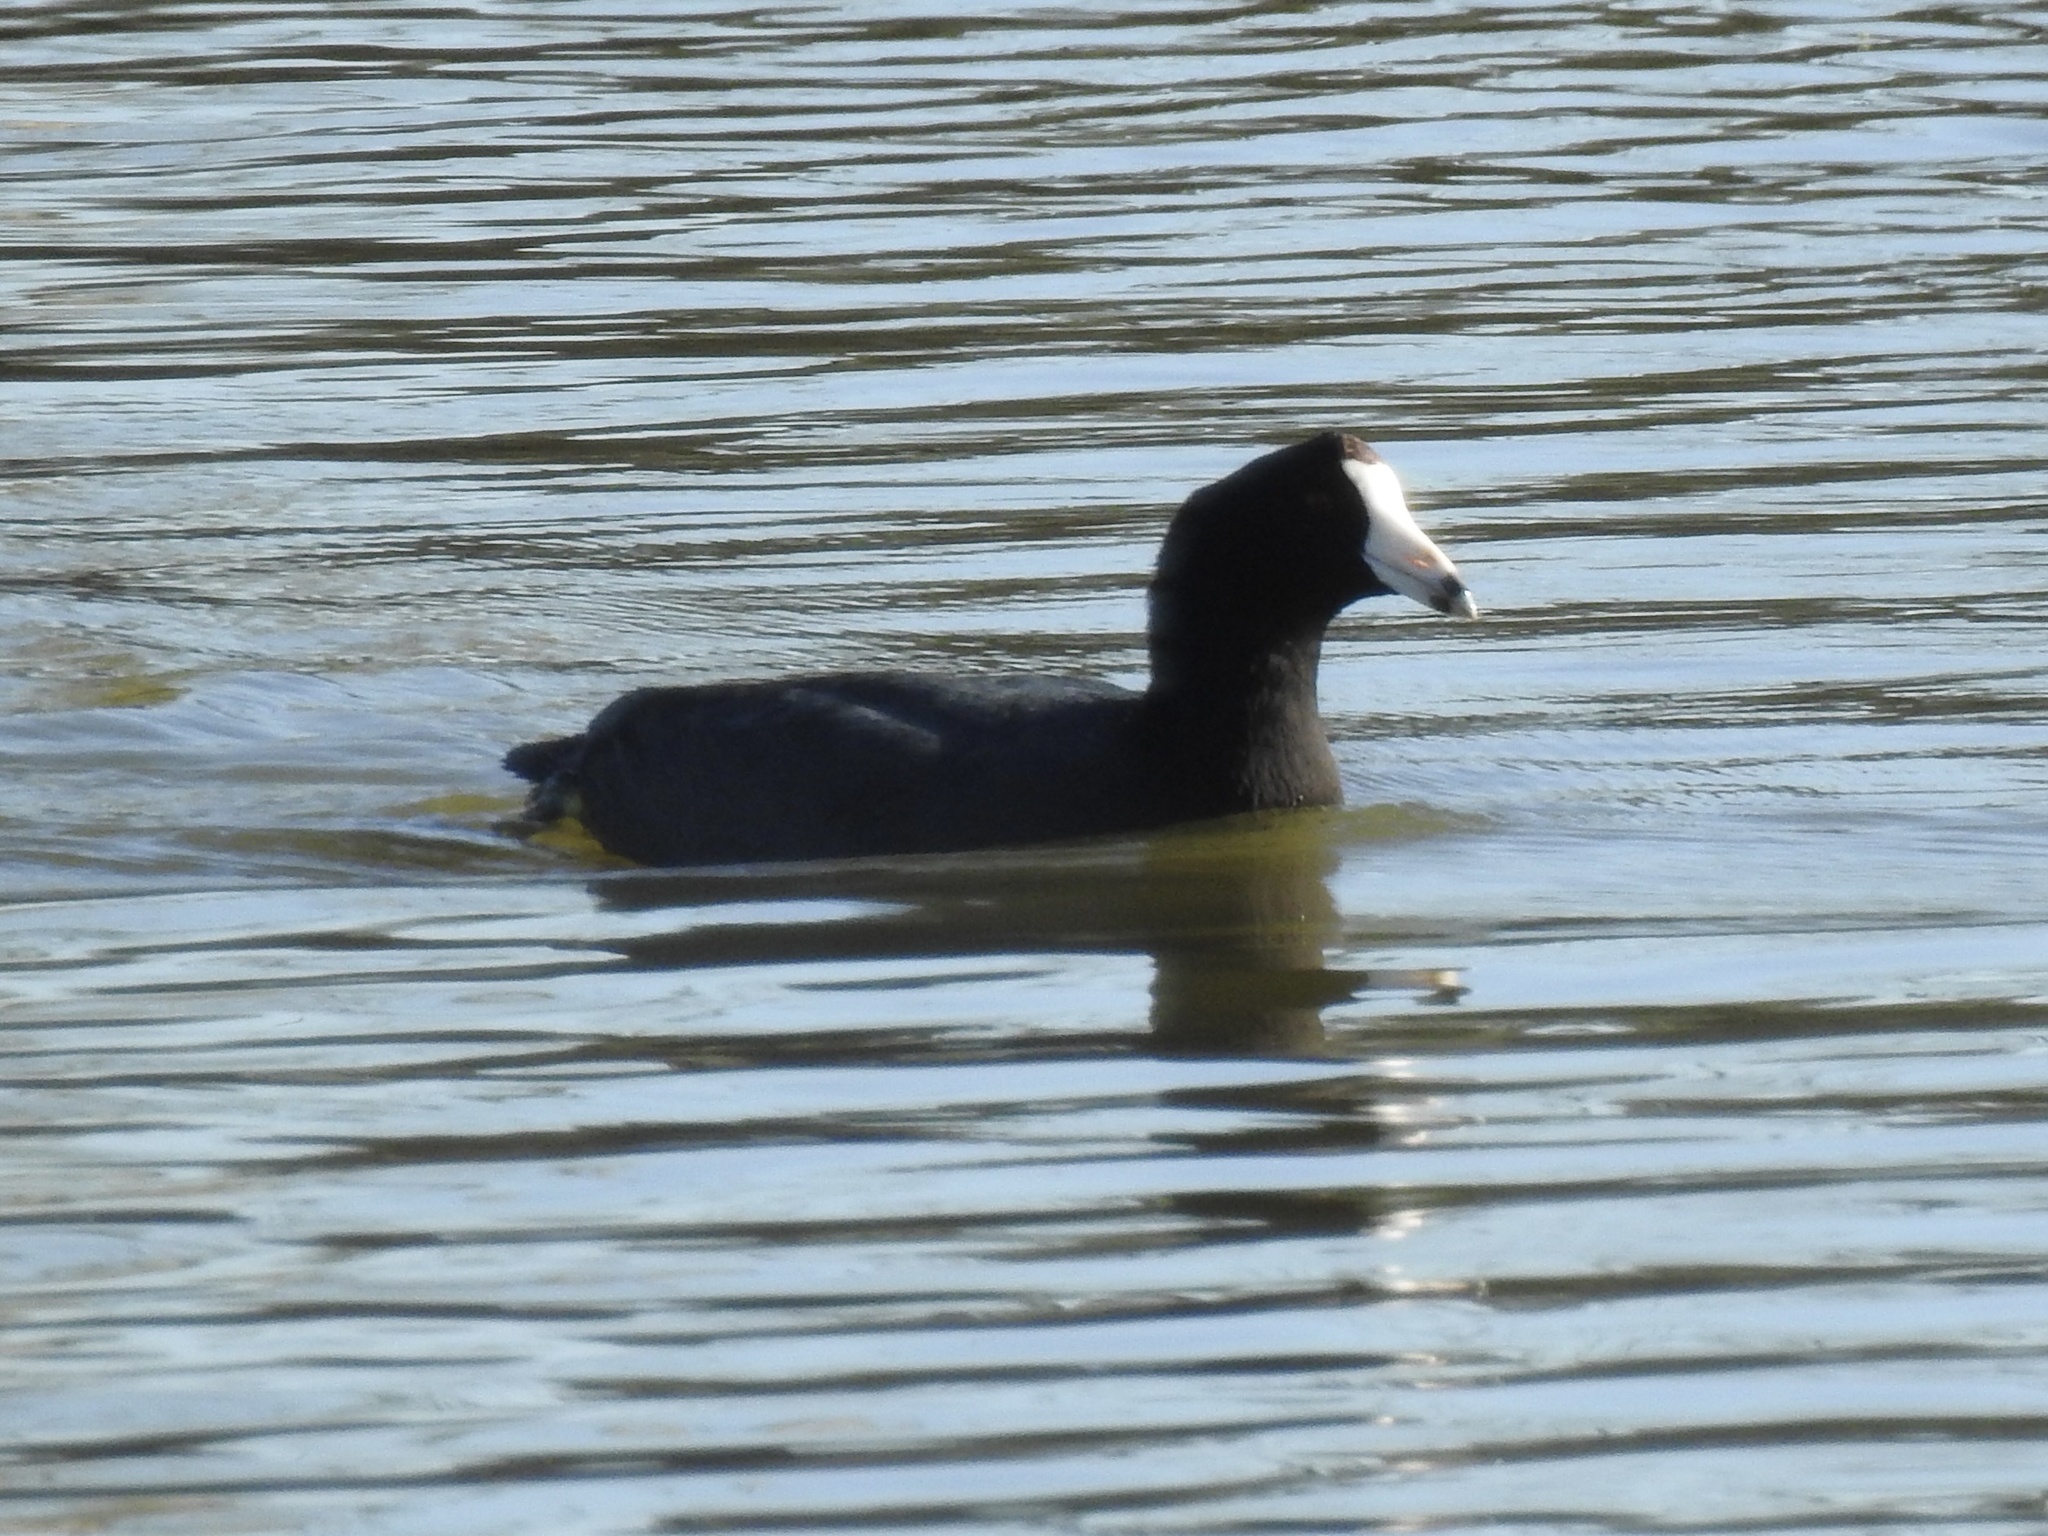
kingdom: Animalia
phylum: Chordata
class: Aves
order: Gruiformes
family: Rallidae
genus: Fulica
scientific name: Fulica americana
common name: American coot
